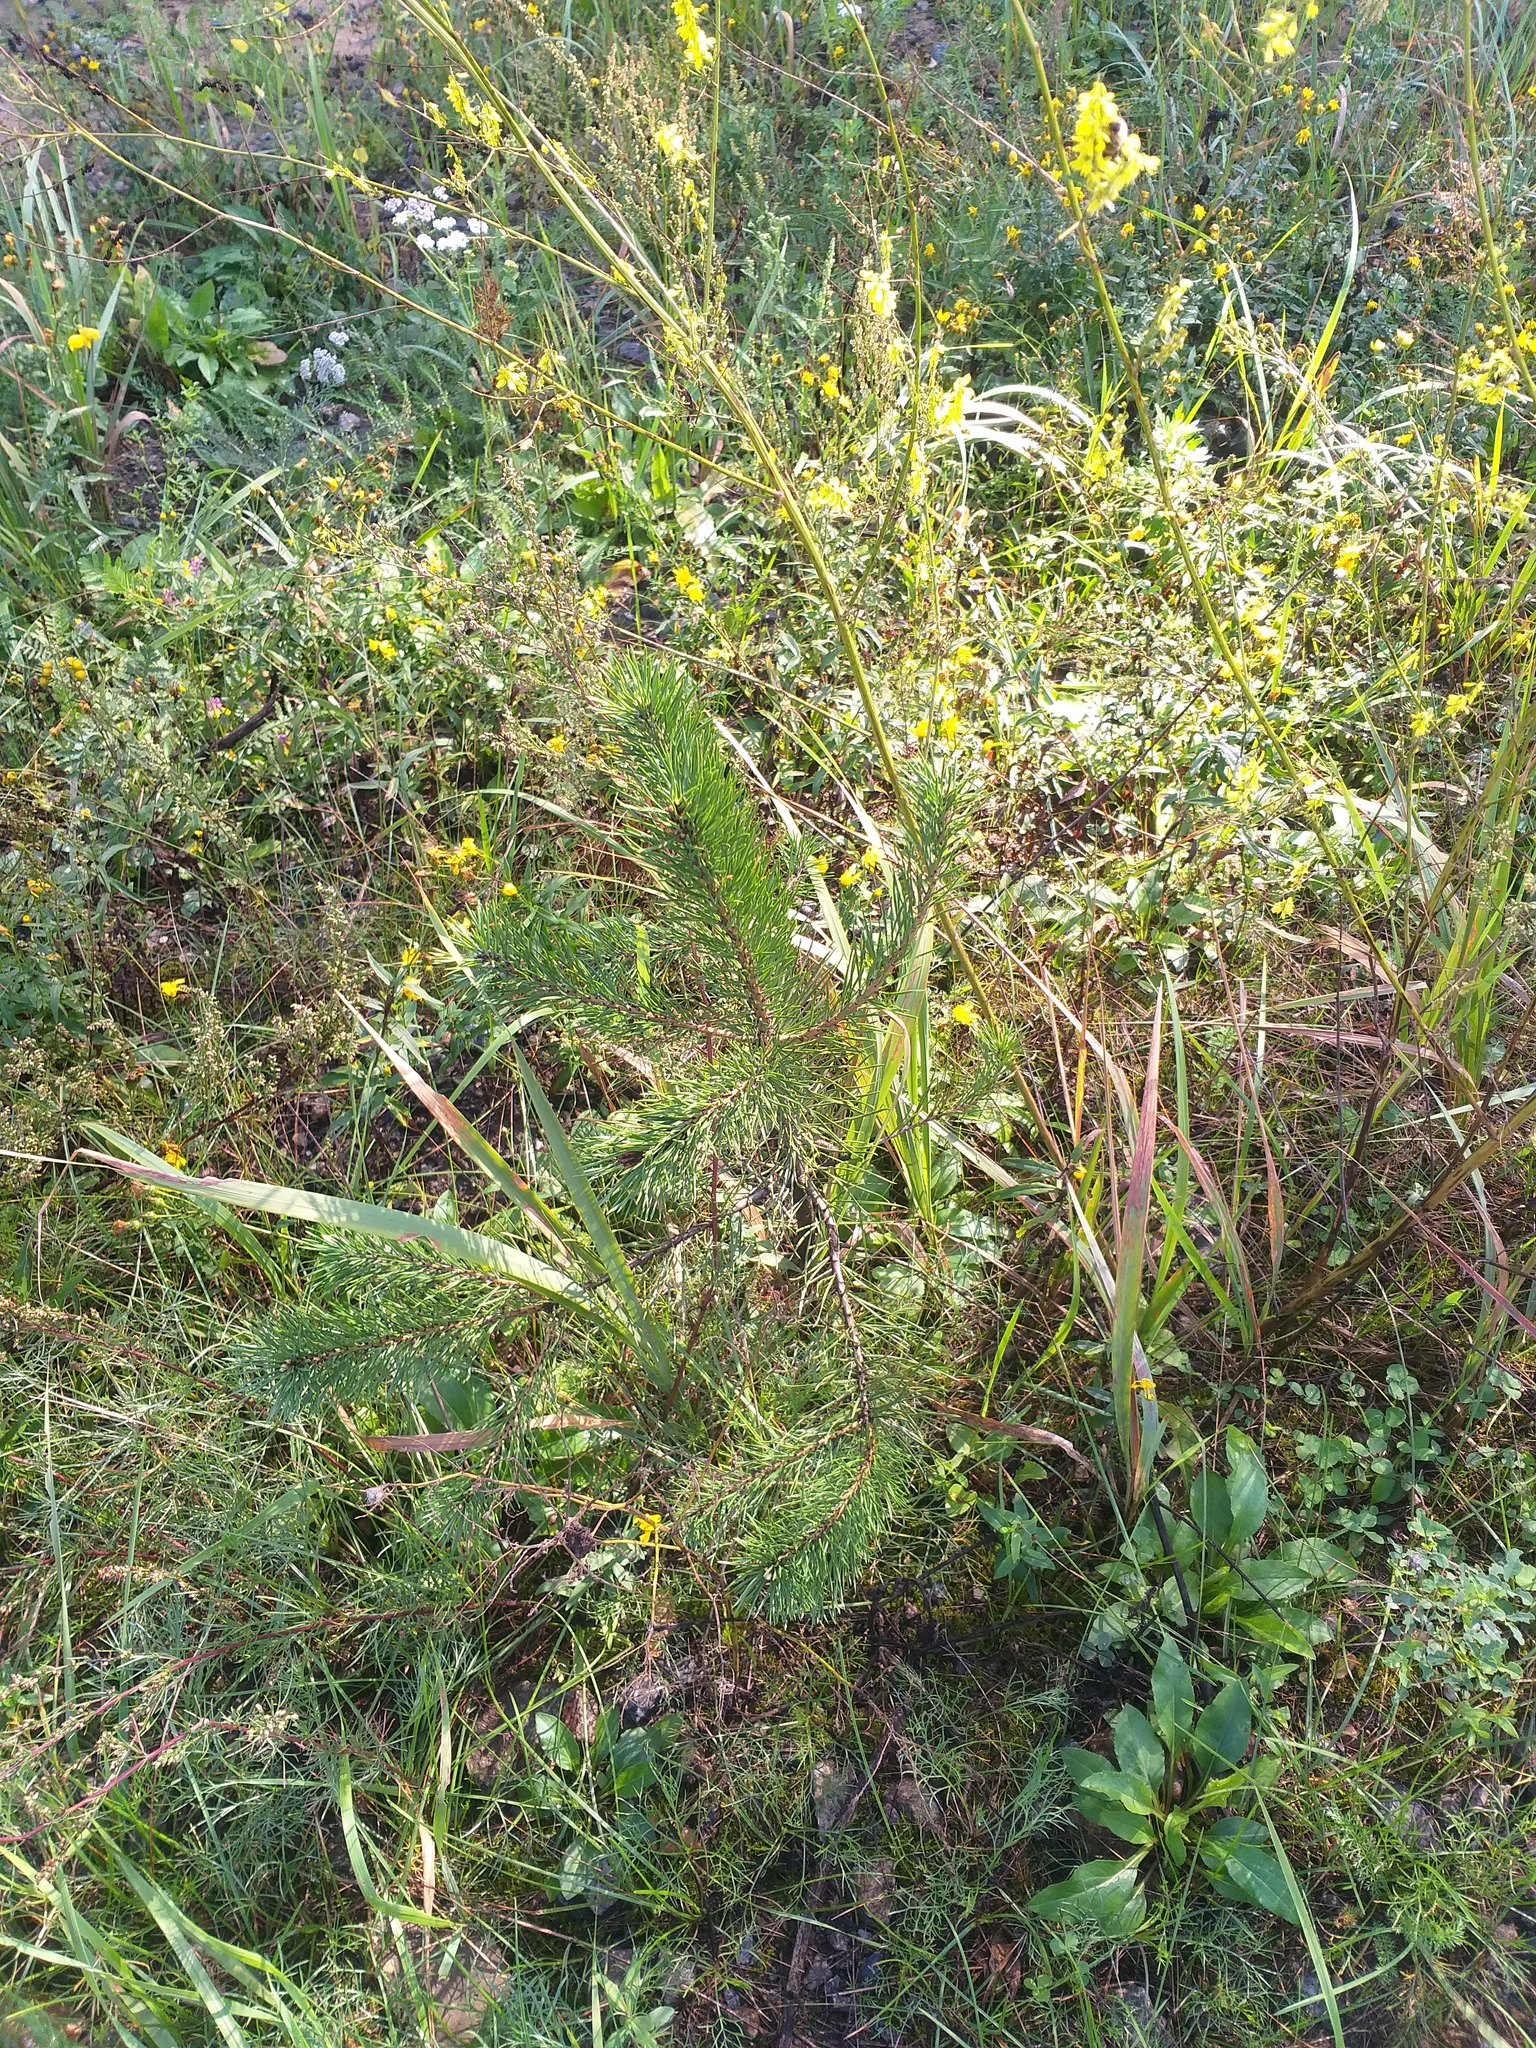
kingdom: Plantae
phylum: Tracheophyta
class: Pinopsida
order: Pinales
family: Pinaceae
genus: Pinus
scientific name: Pinus sylvestris
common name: Scots pine
